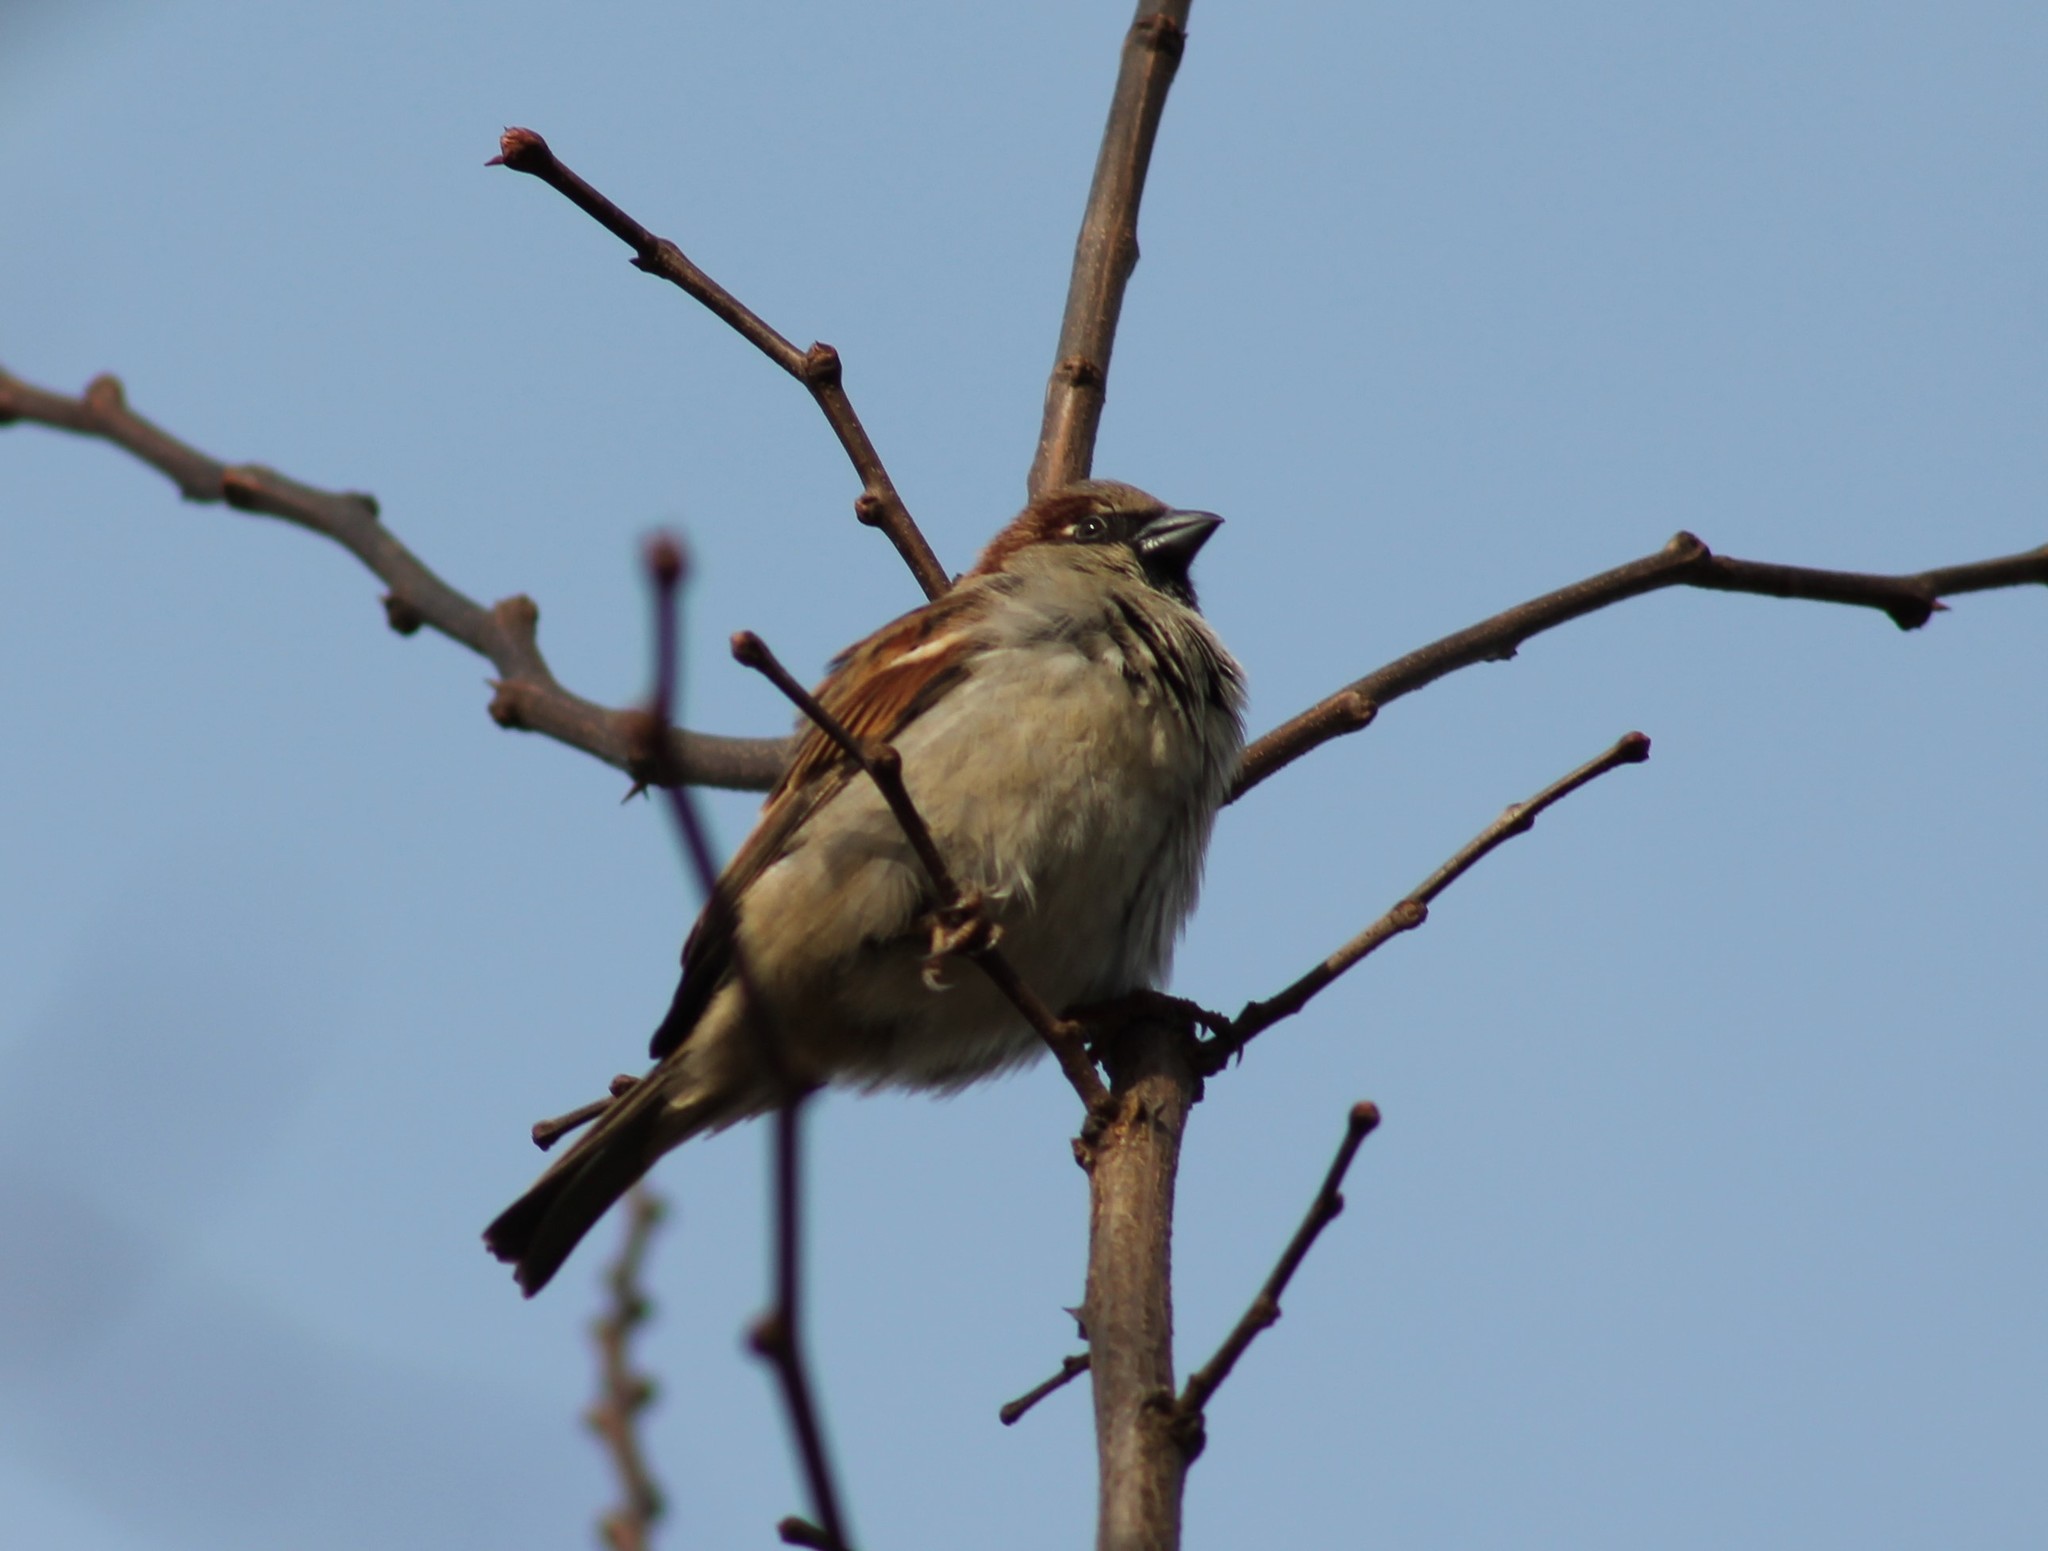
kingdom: Animalia
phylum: Chordata
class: Aves
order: Passeriformes
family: Passeridae
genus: Passer
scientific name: Passer domesticus
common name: House sparrow
